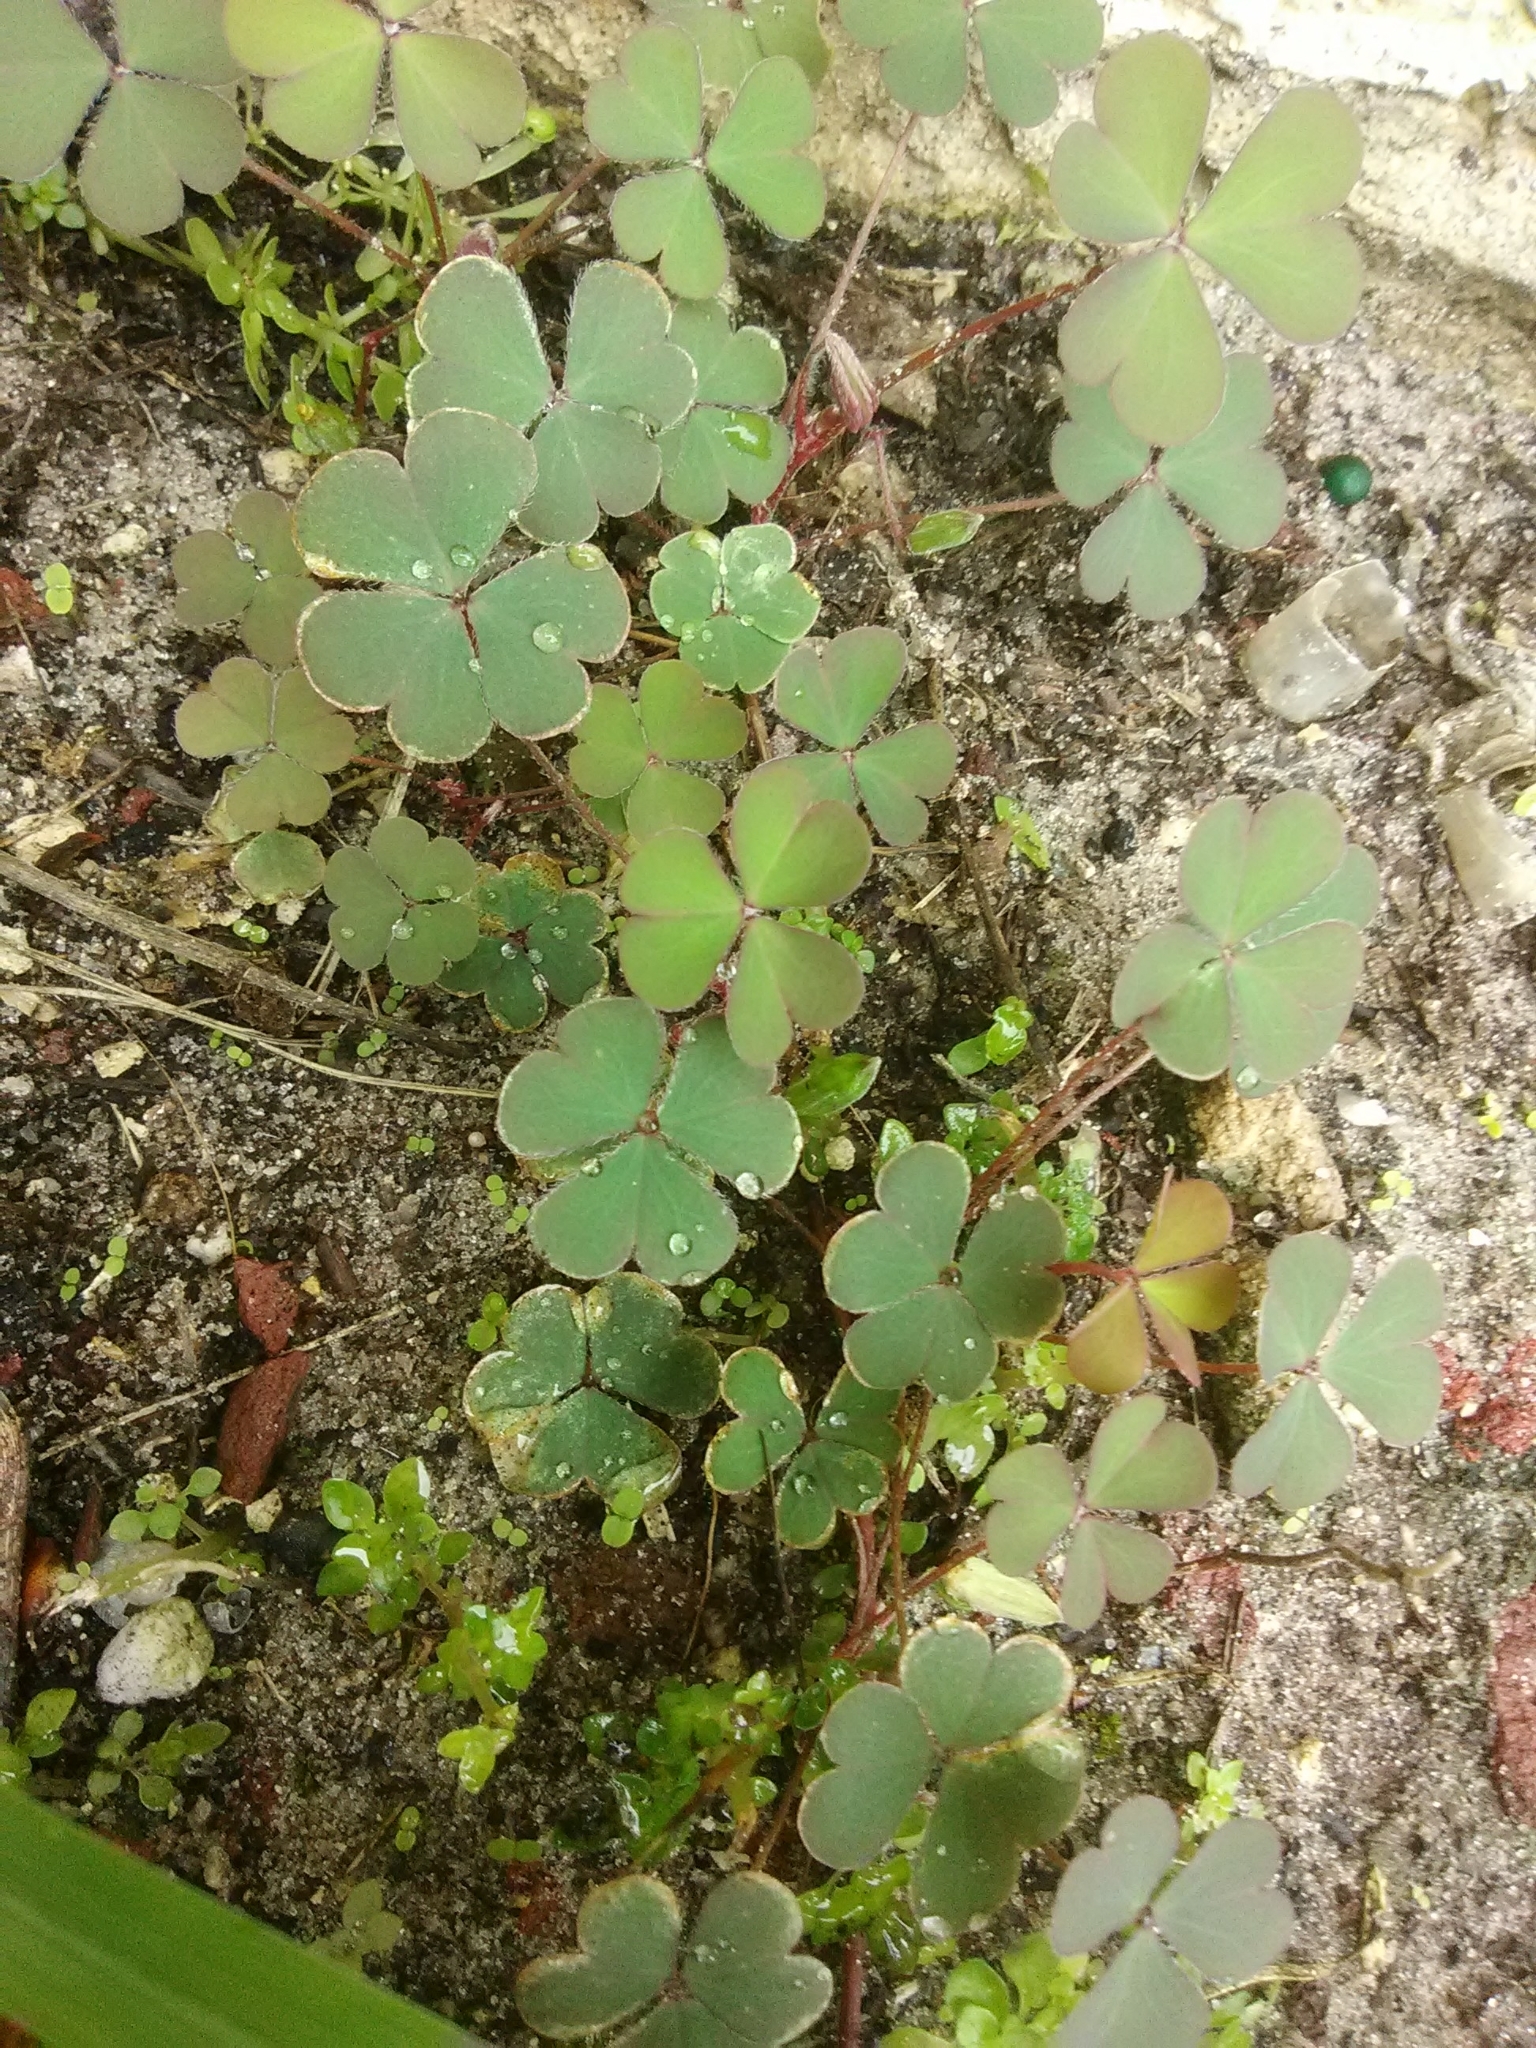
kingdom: Plantae
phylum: Tracheophyta
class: Magnoliopsida
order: Oxalidales
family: Oxalidaceae
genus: Oxalis
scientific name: Oxalis corniculata
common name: Procumbent yellow-sorrel
